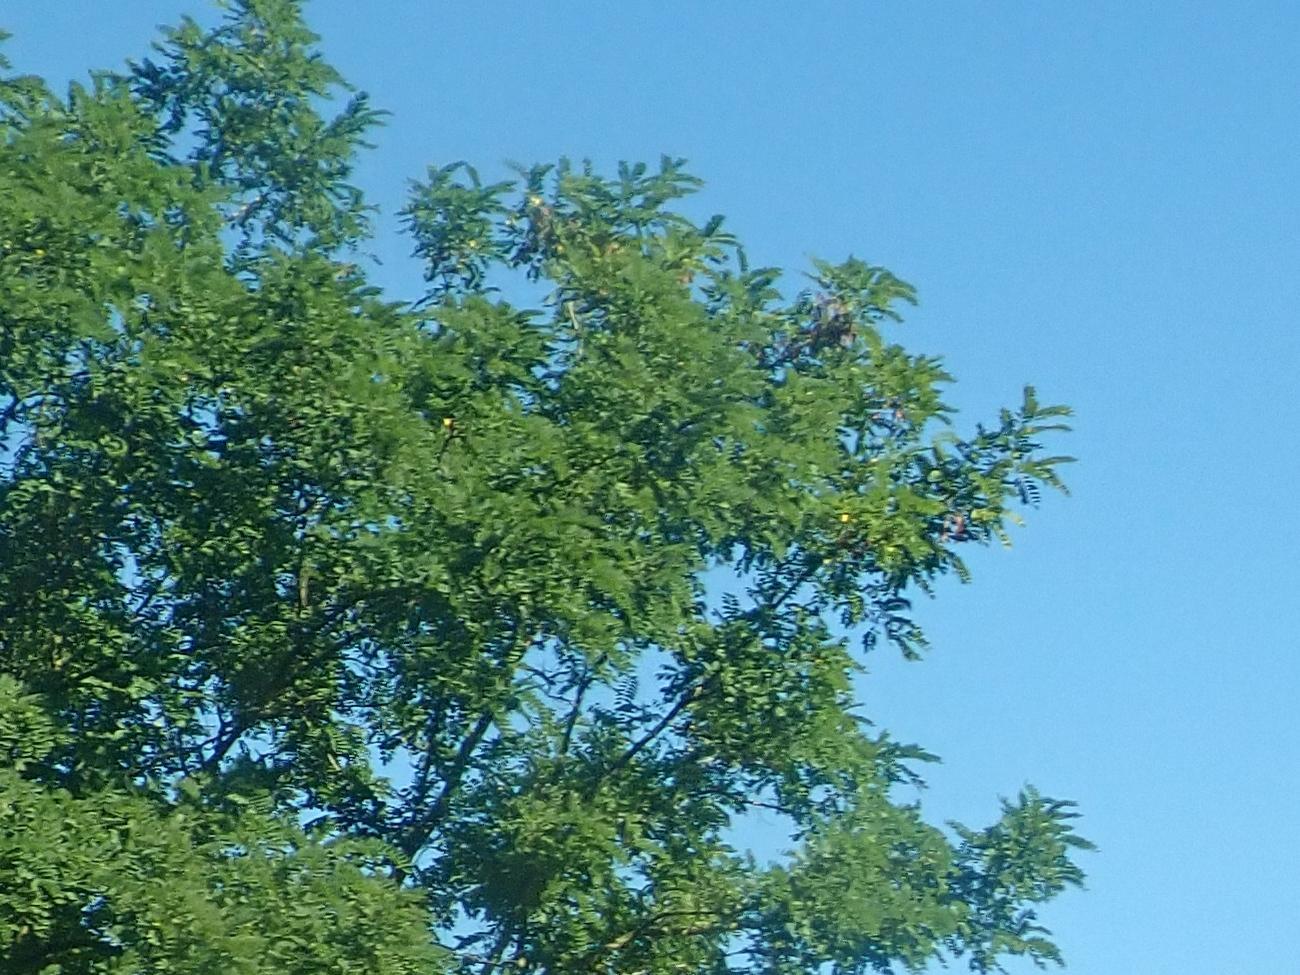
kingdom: Plantae
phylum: Tracheophyta
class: Magnoliopsida
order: Fabales
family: Fabaceae
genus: Robinia
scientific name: Robinia pseudoacacia
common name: Black locust
